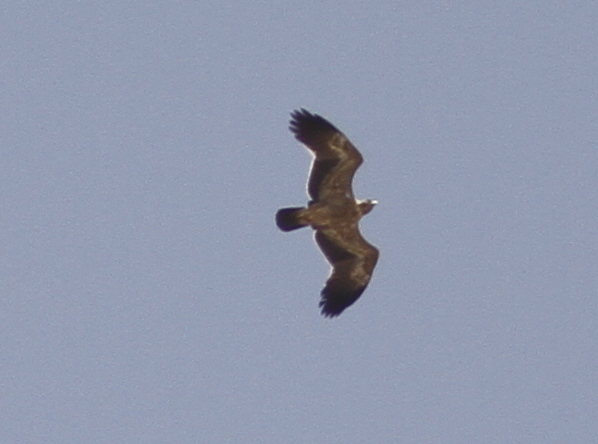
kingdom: Animalia
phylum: Chordata
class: Aves
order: Accipitriformes
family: Accipitridae
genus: Aquila
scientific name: Aquila pomarina
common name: Lesser spotted eagle
